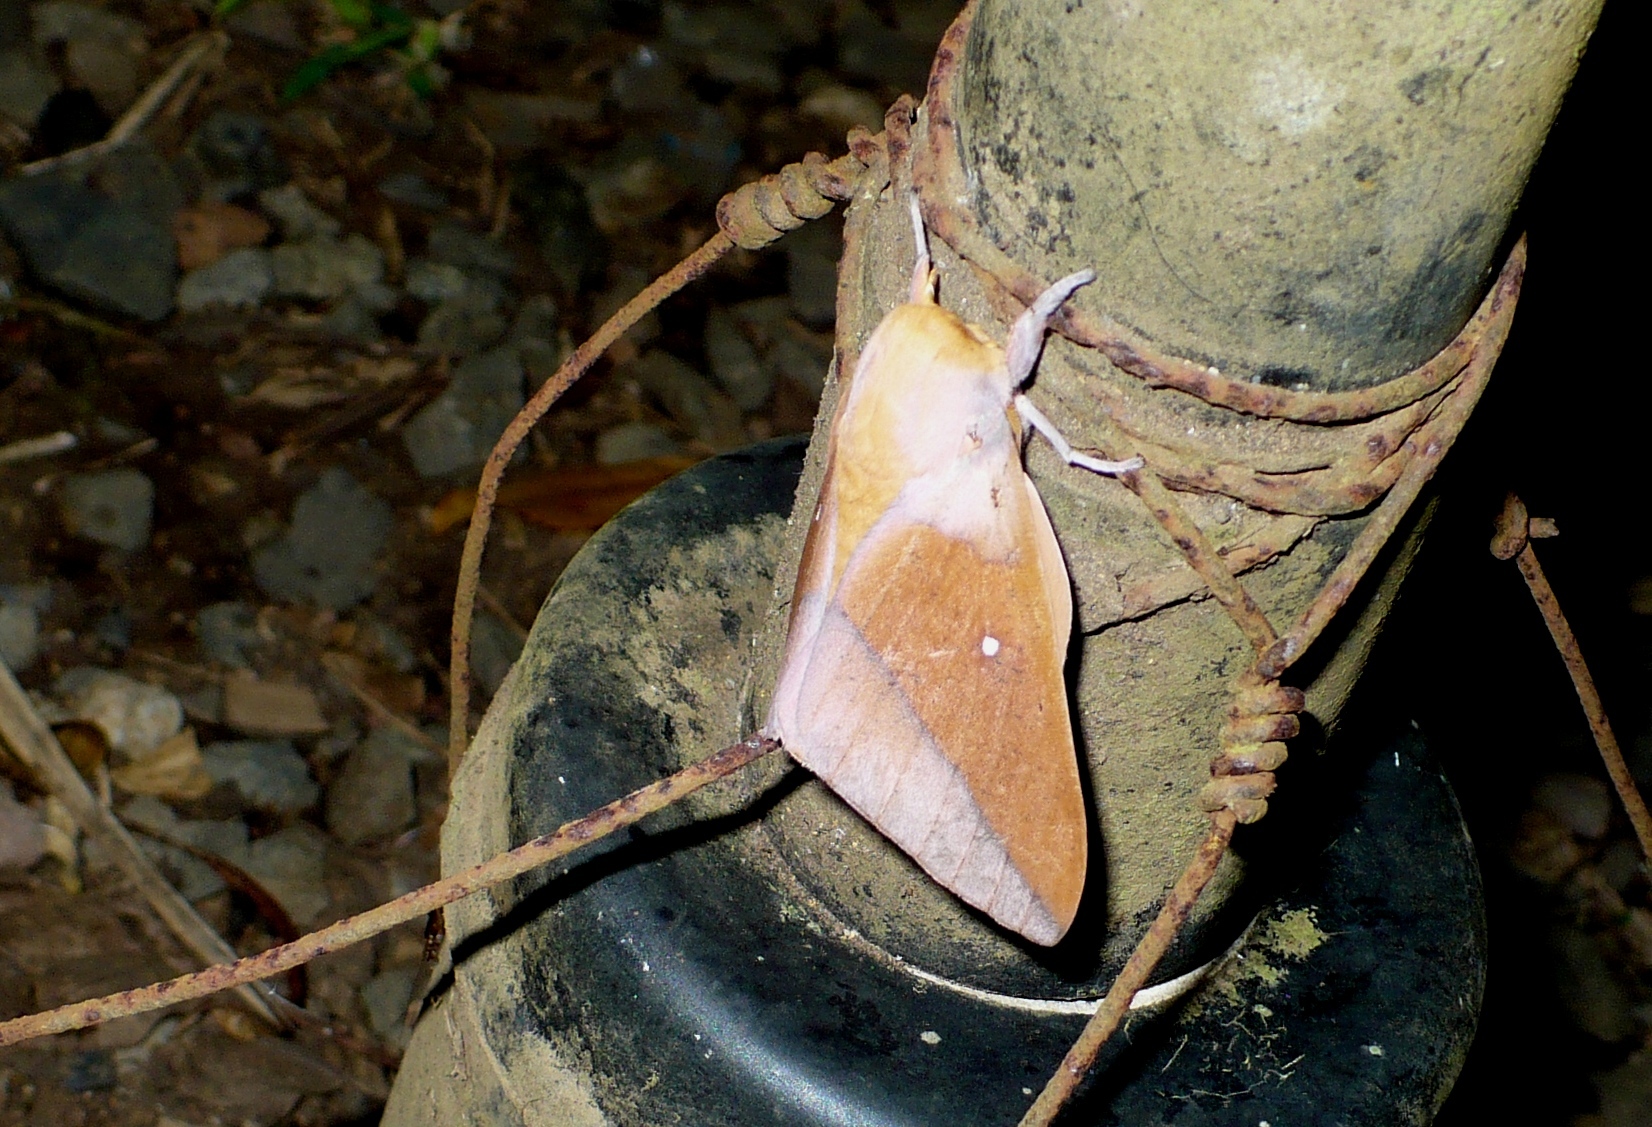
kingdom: Animalia
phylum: Arthropoda
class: Insecta
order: Lepidoptera
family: Saturniidae
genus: Syssphinx
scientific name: Syssphinx colla
